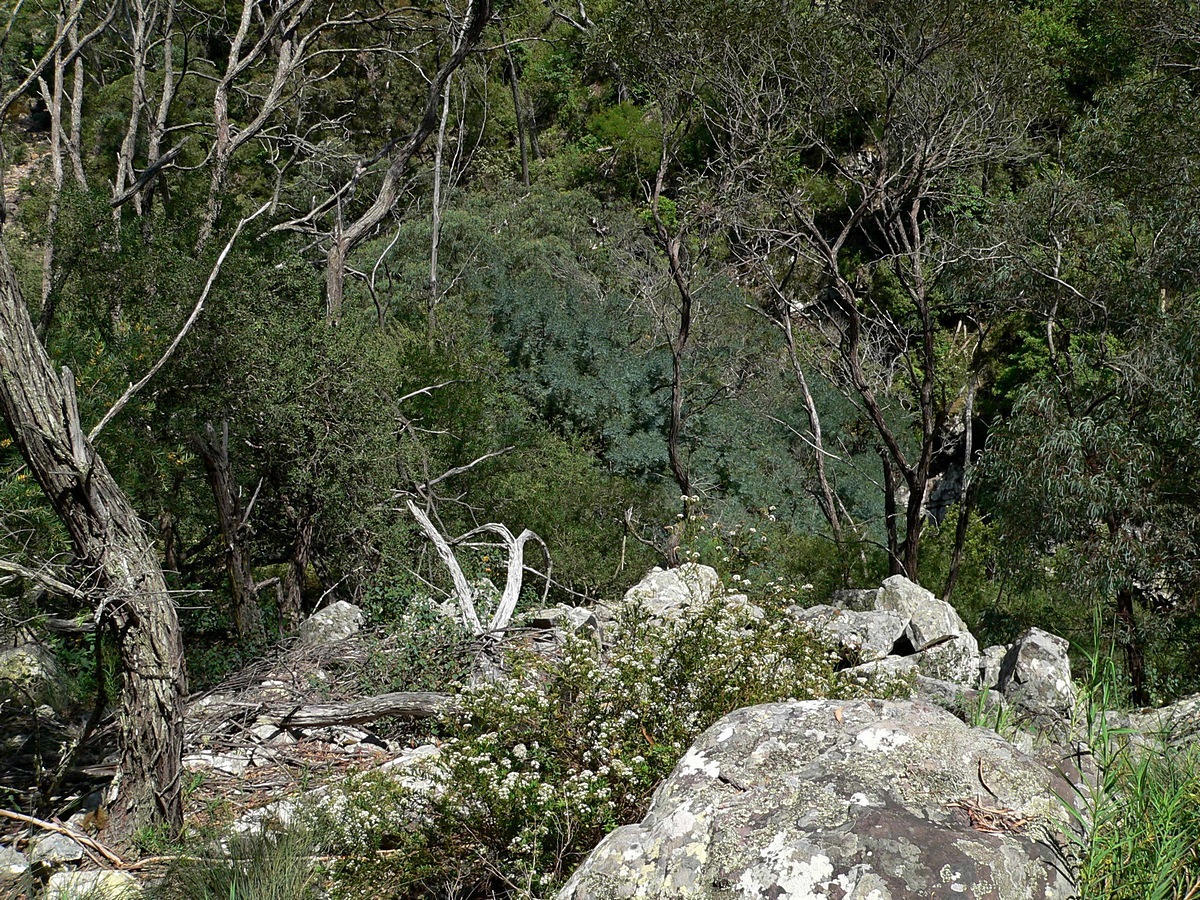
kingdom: Plantae
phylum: Tracheophyta
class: Magnoliopsida
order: Fabales
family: Fabaceae
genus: Acacia
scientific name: Acacia blayana
